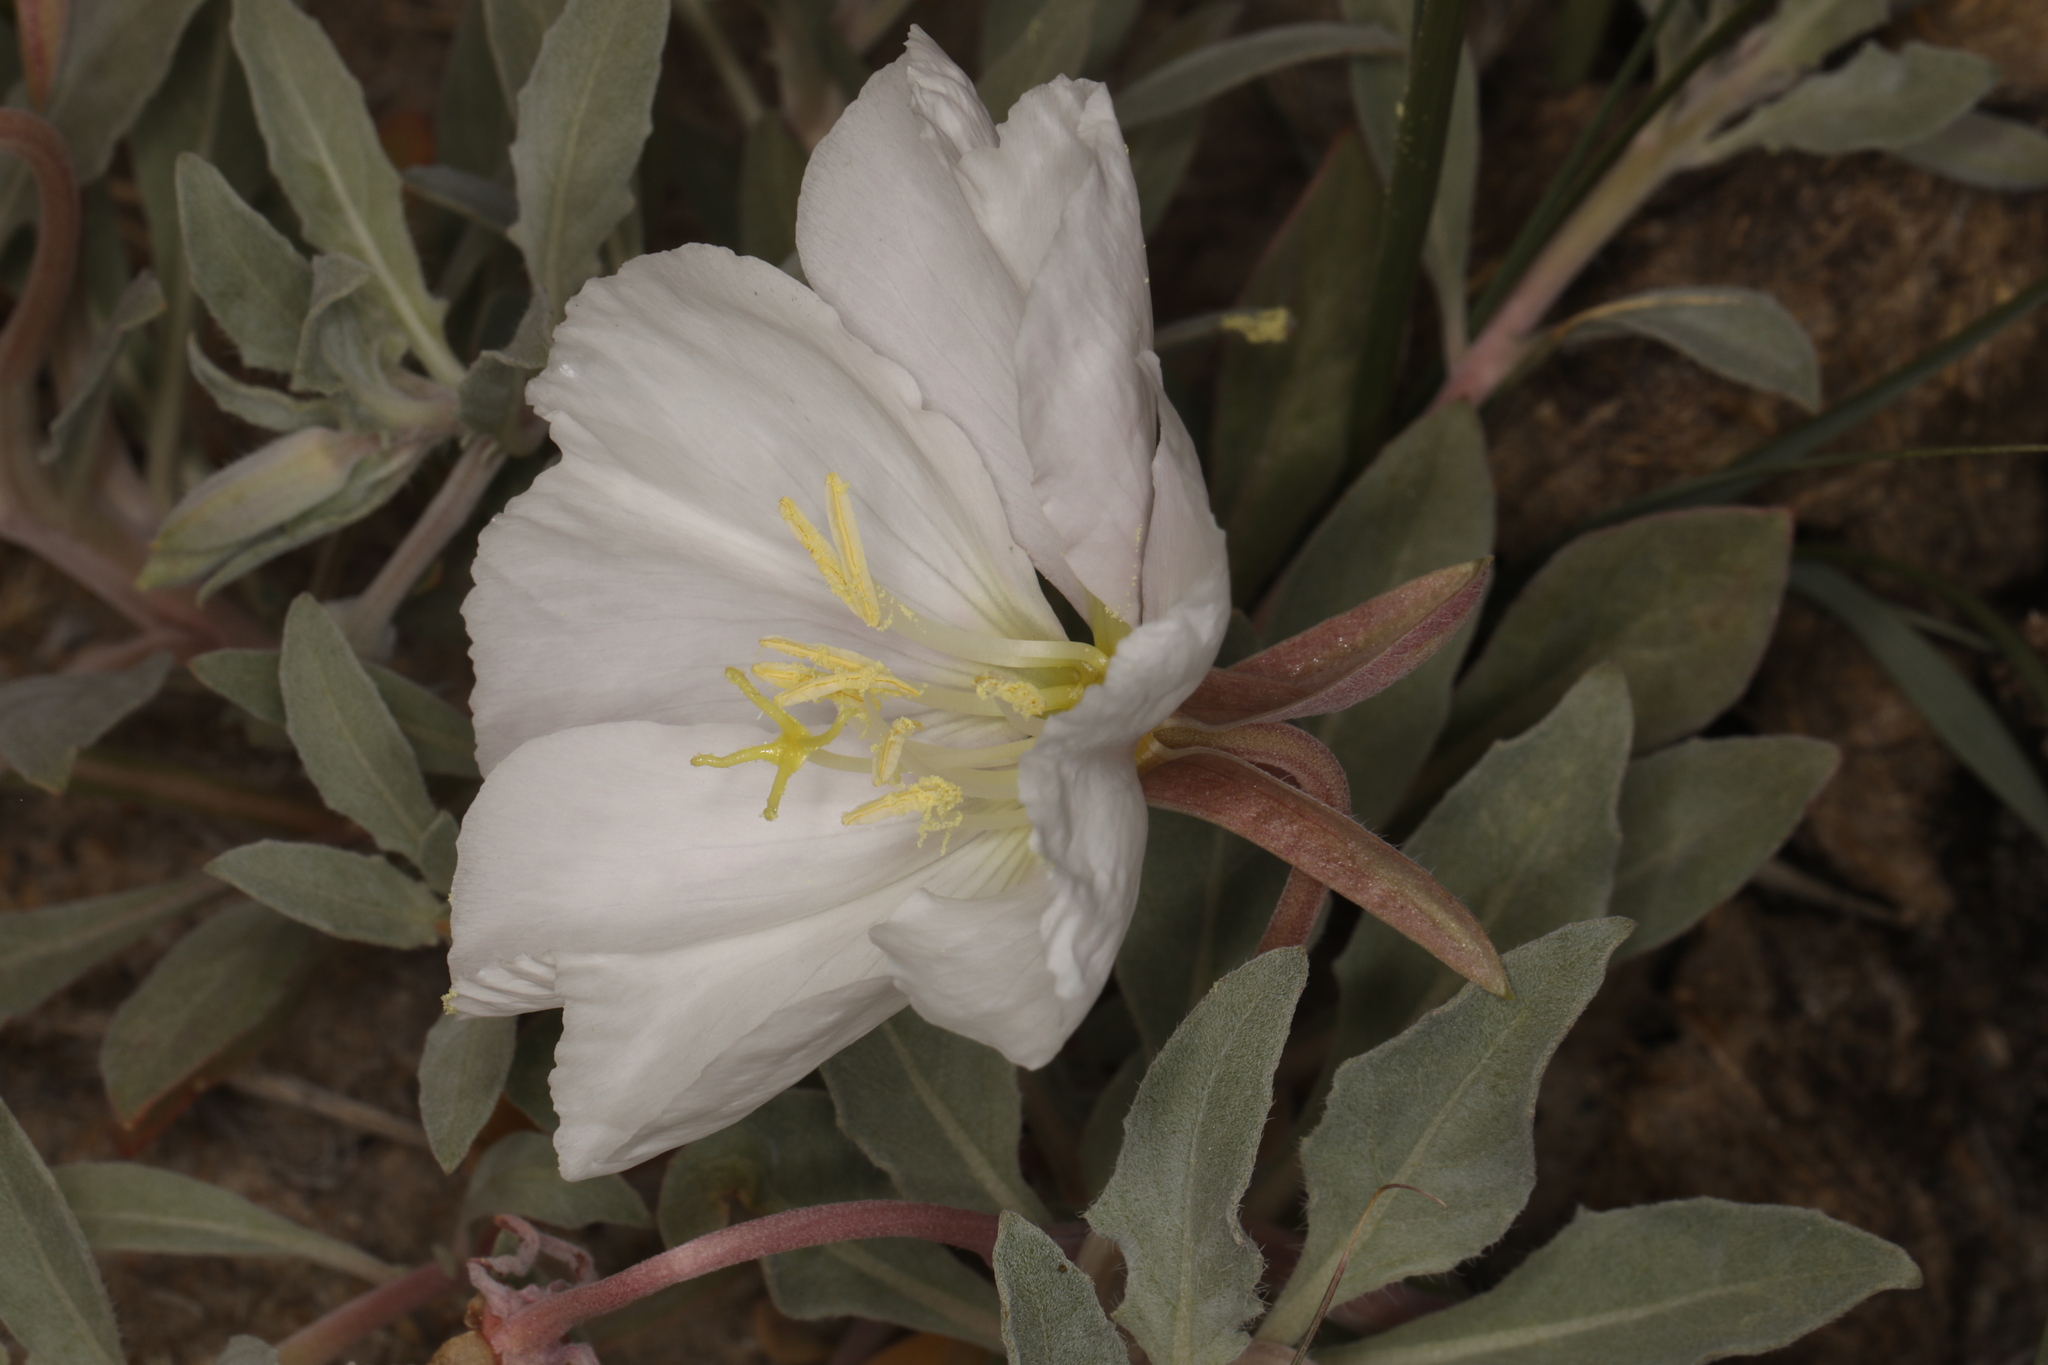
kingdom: Plantae
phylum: Tracheophyta
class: Magnoliopsida
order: Myrtales
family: Onagraceae
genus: Oenothera
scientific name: Oenothera californica
